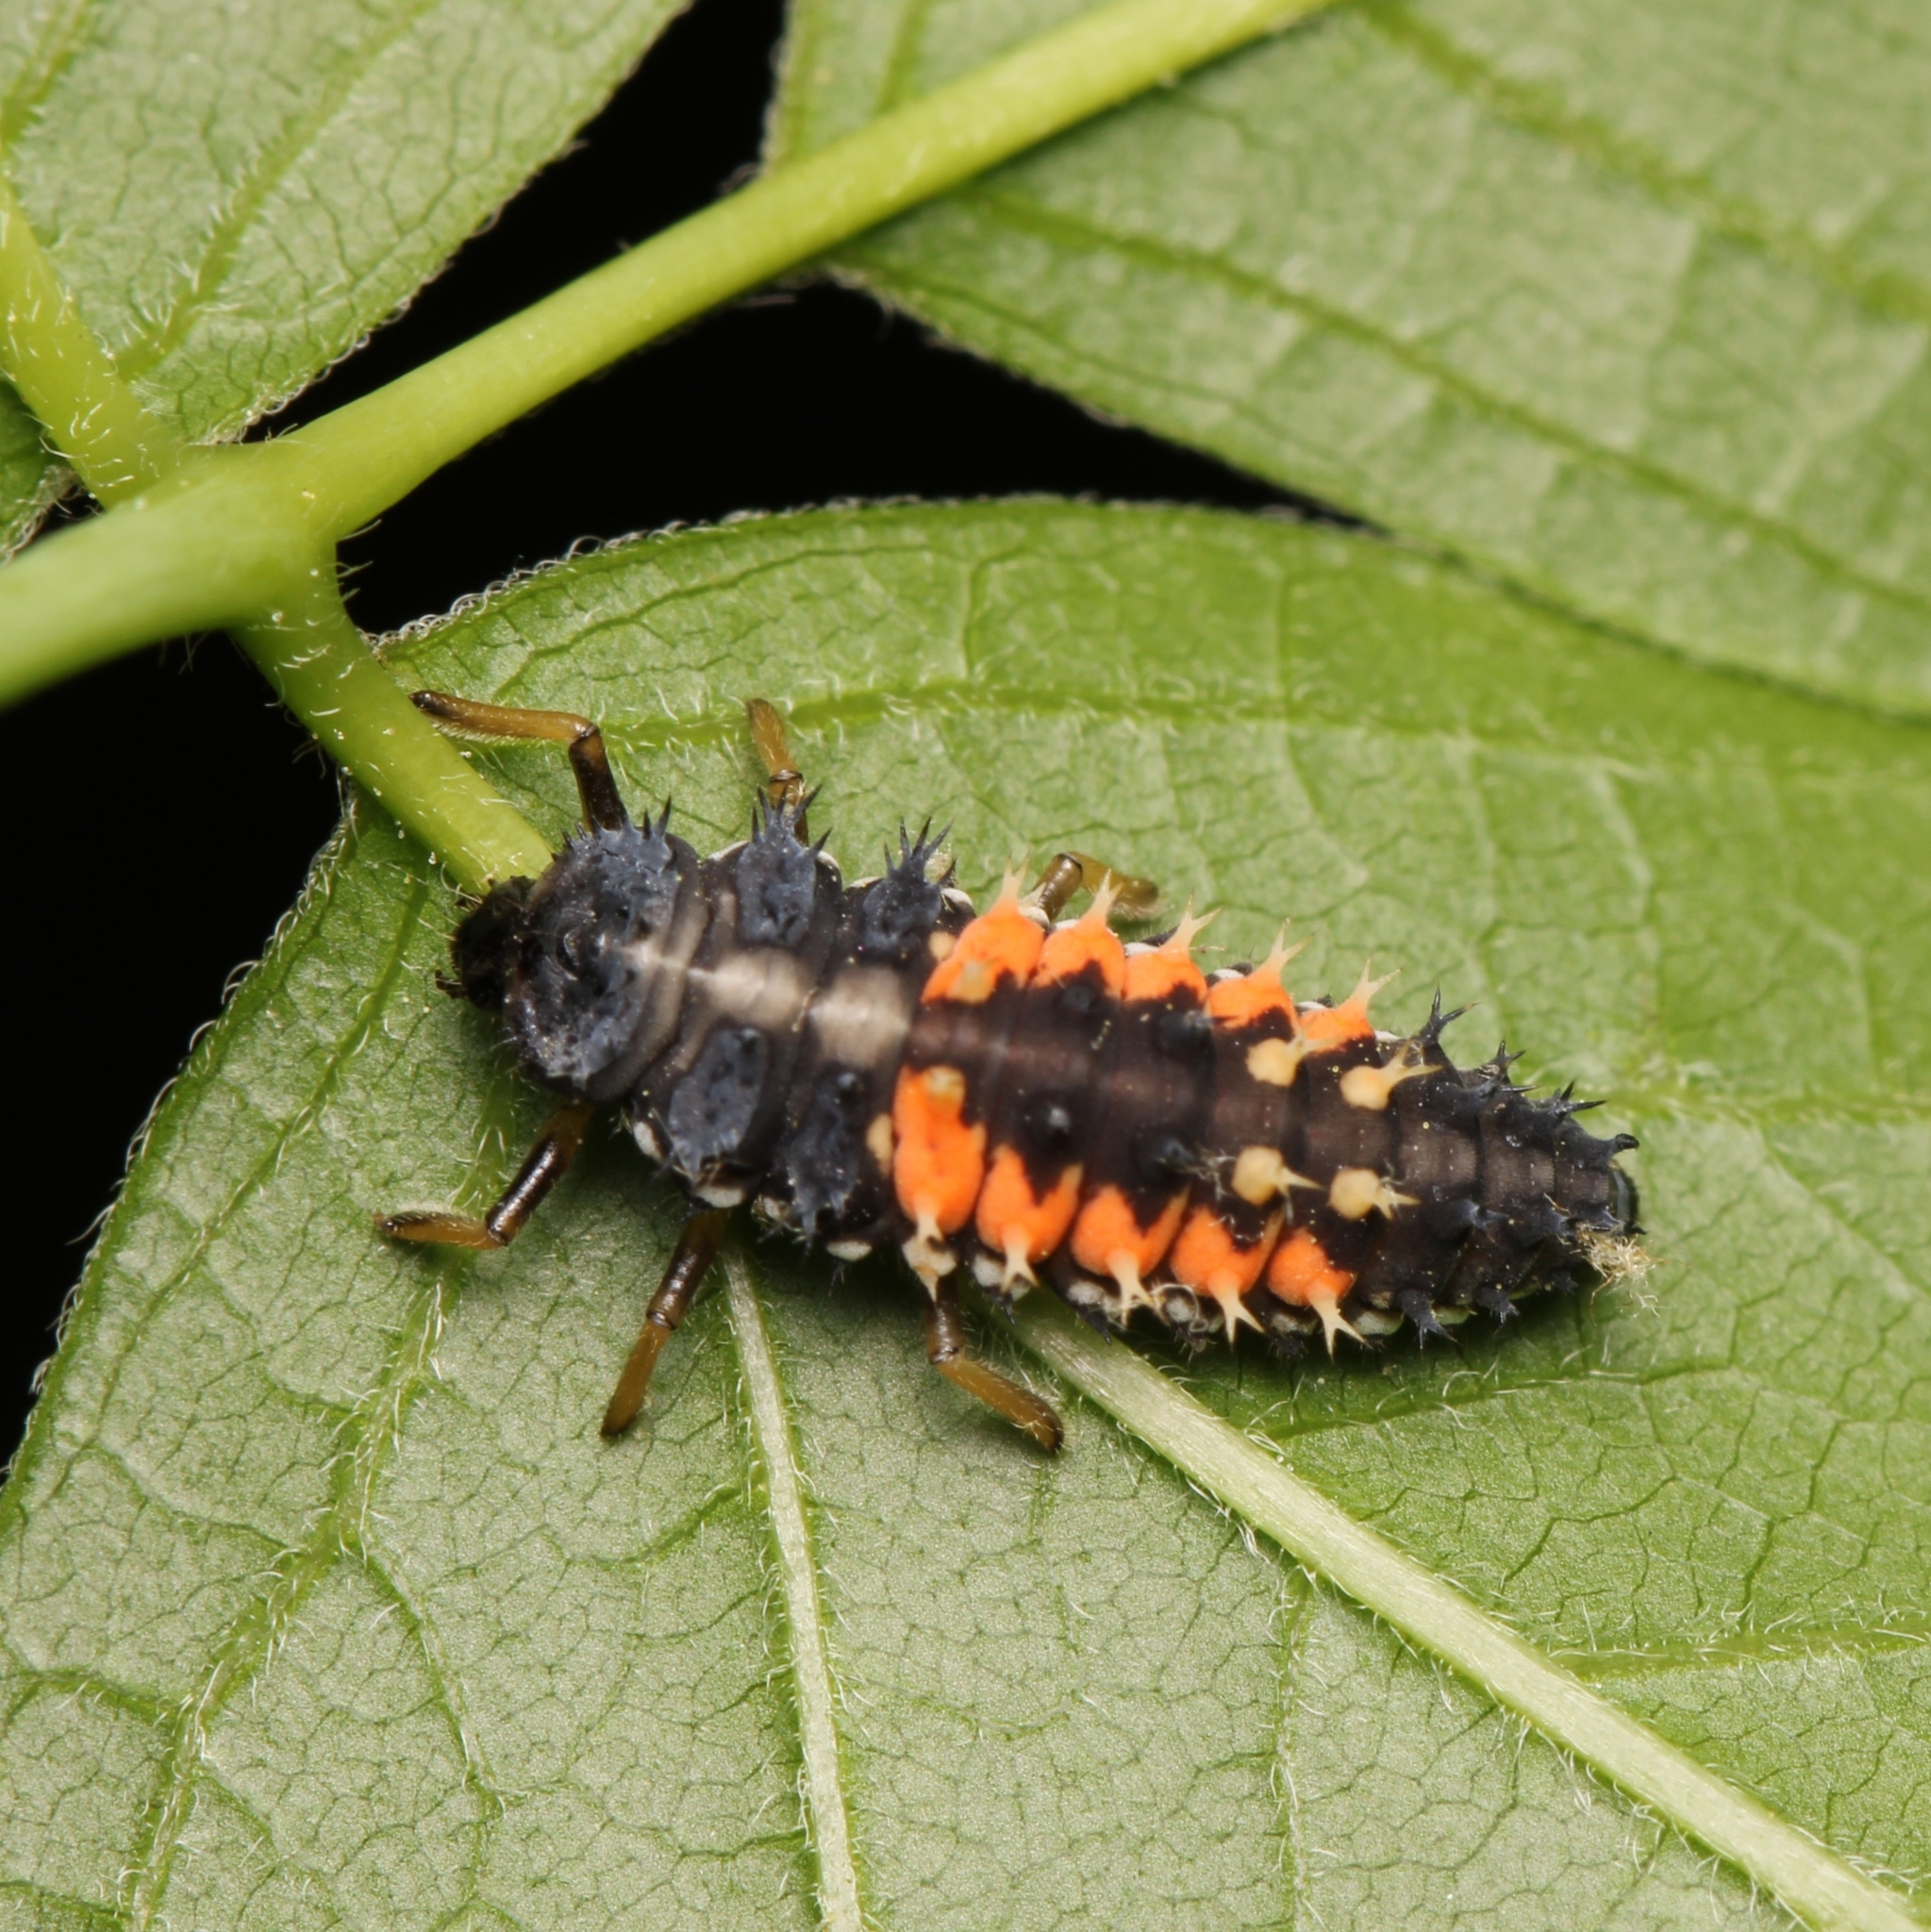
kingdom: Animalia
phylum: Arthropoda
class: Insecta
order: Coleoptera
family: Coccinellidae
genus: Harmonia
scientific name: Harmonia axyridis
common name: Harlequin ladybird
